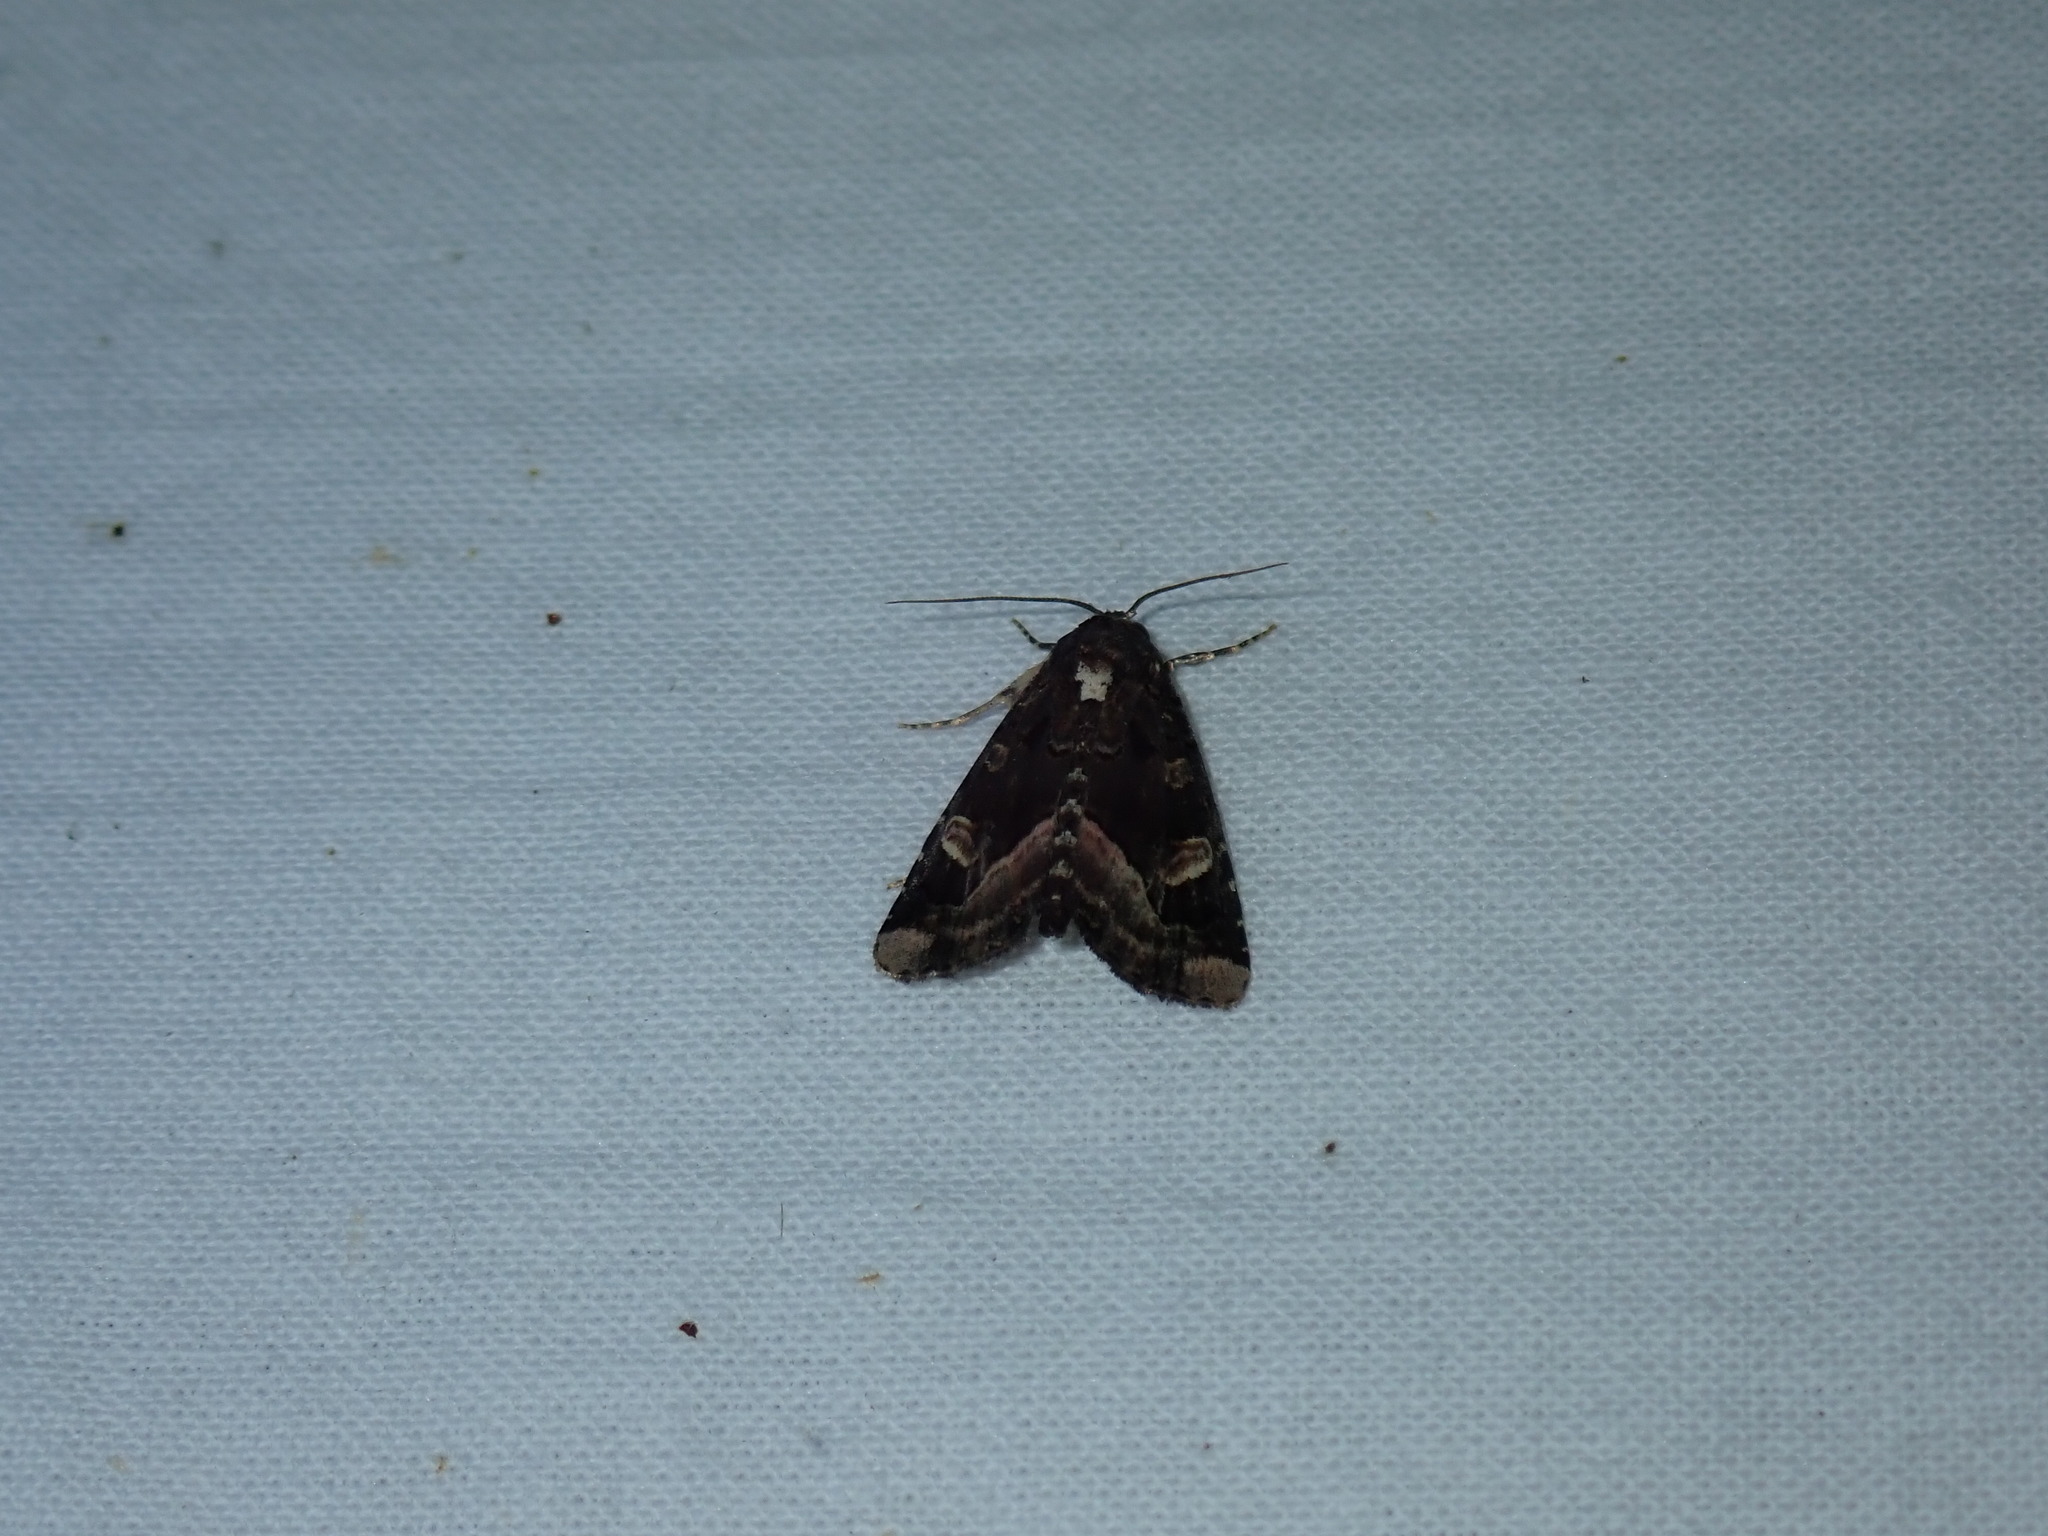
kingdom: Animalia
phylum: Arthropoda
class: Insecta
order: Lepidoptera
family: Noctuidae
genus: Homophoberia
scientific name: Homophoberia apicosa
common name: Black wedge-spot
